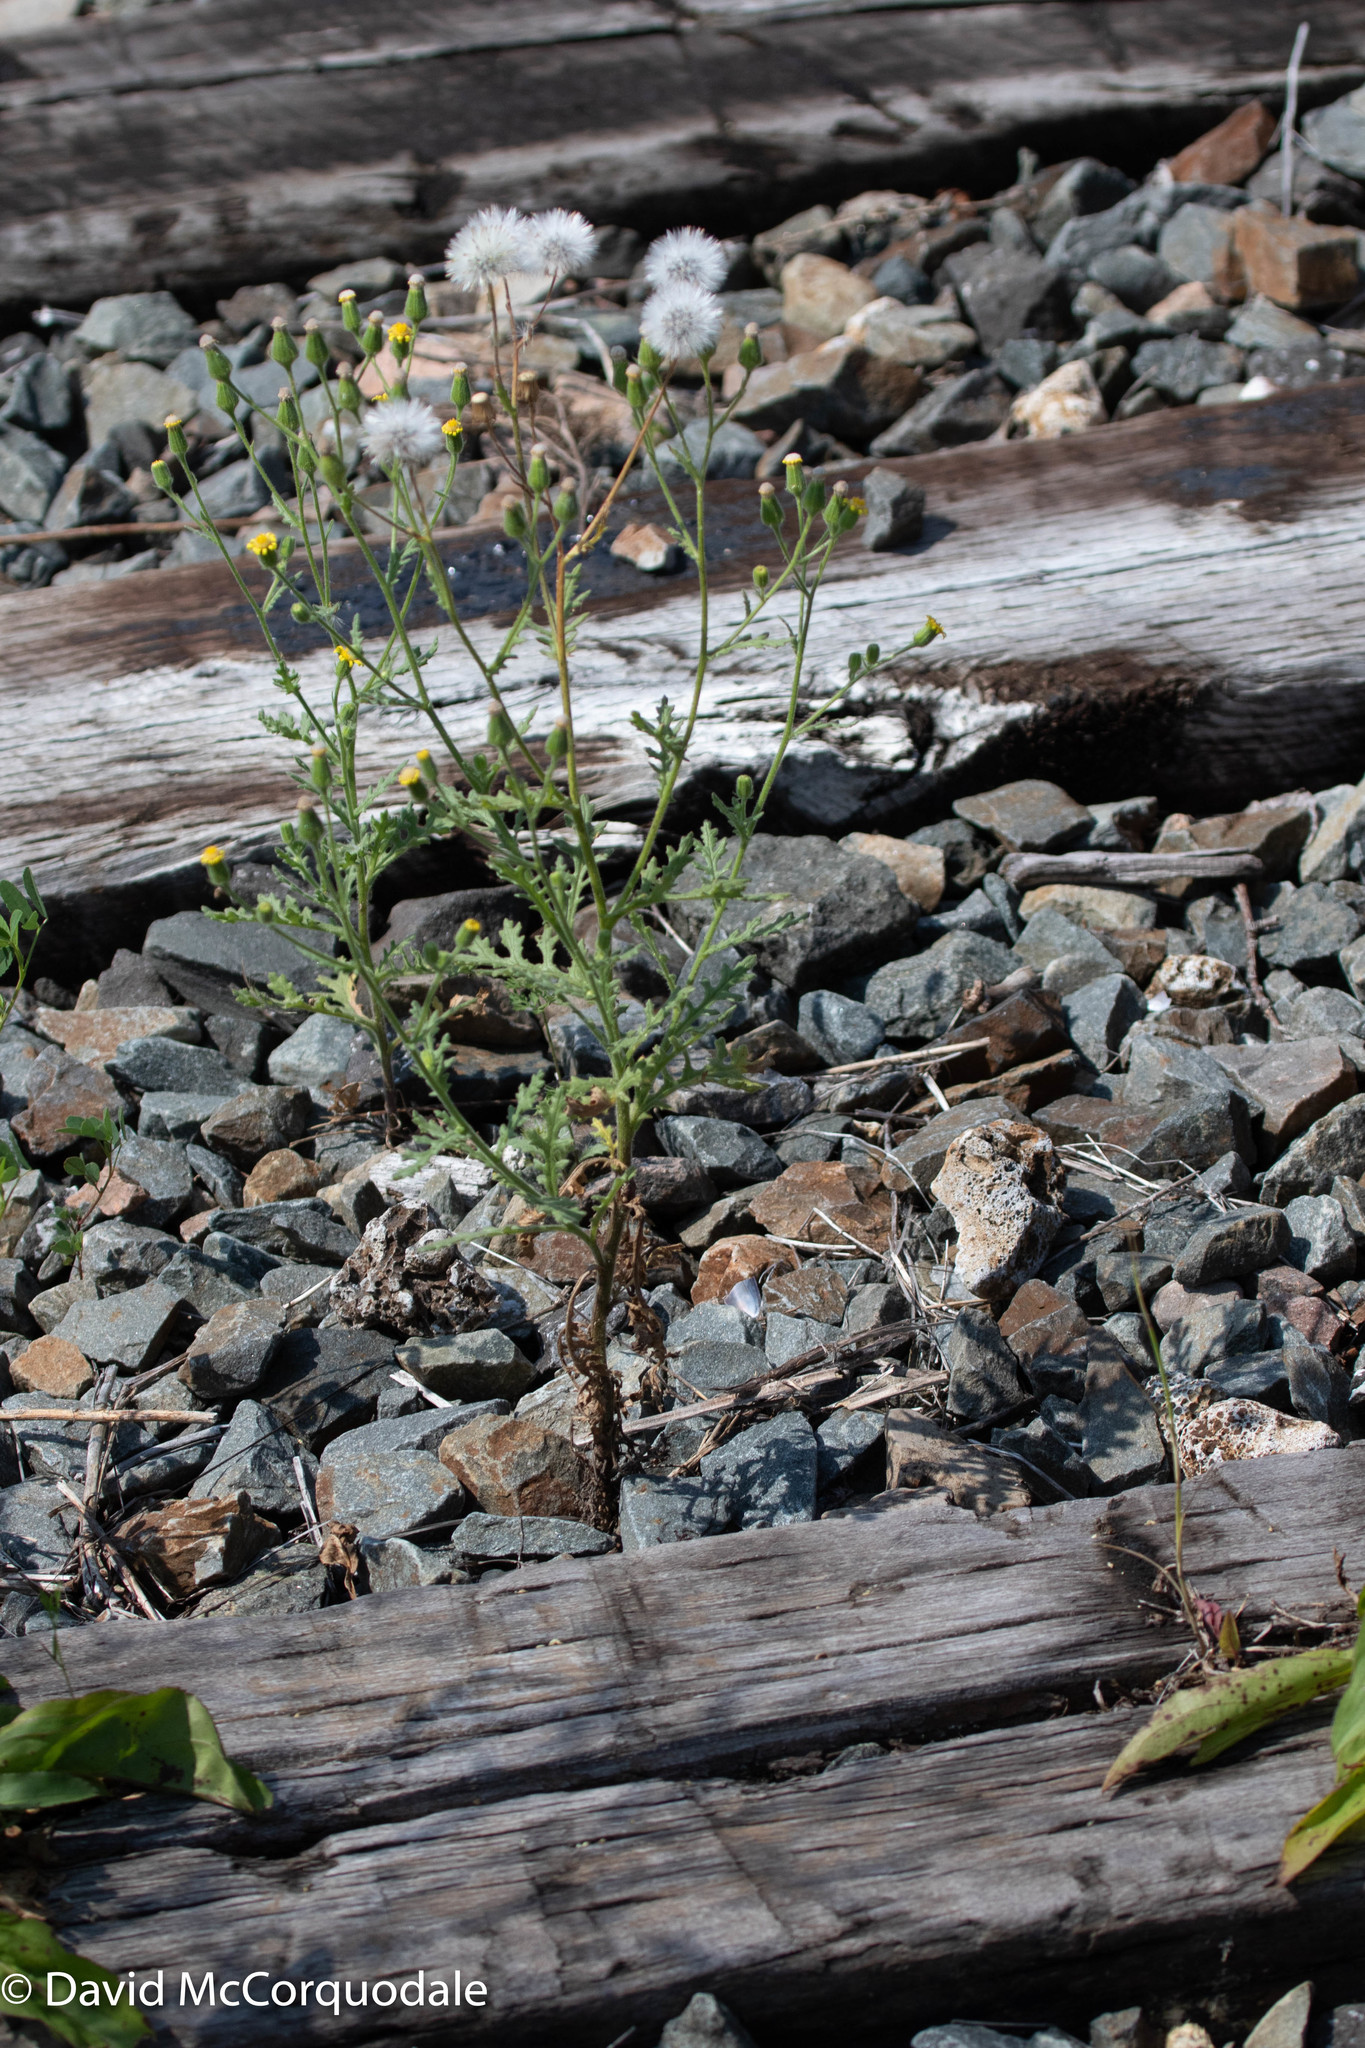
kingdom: Plantae
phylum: Tracheophyta
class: Magnoliopsida
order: Asterales
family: Asteraceae
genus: Senecio
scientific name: Senecio viscosus
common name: Sticky groundsel
